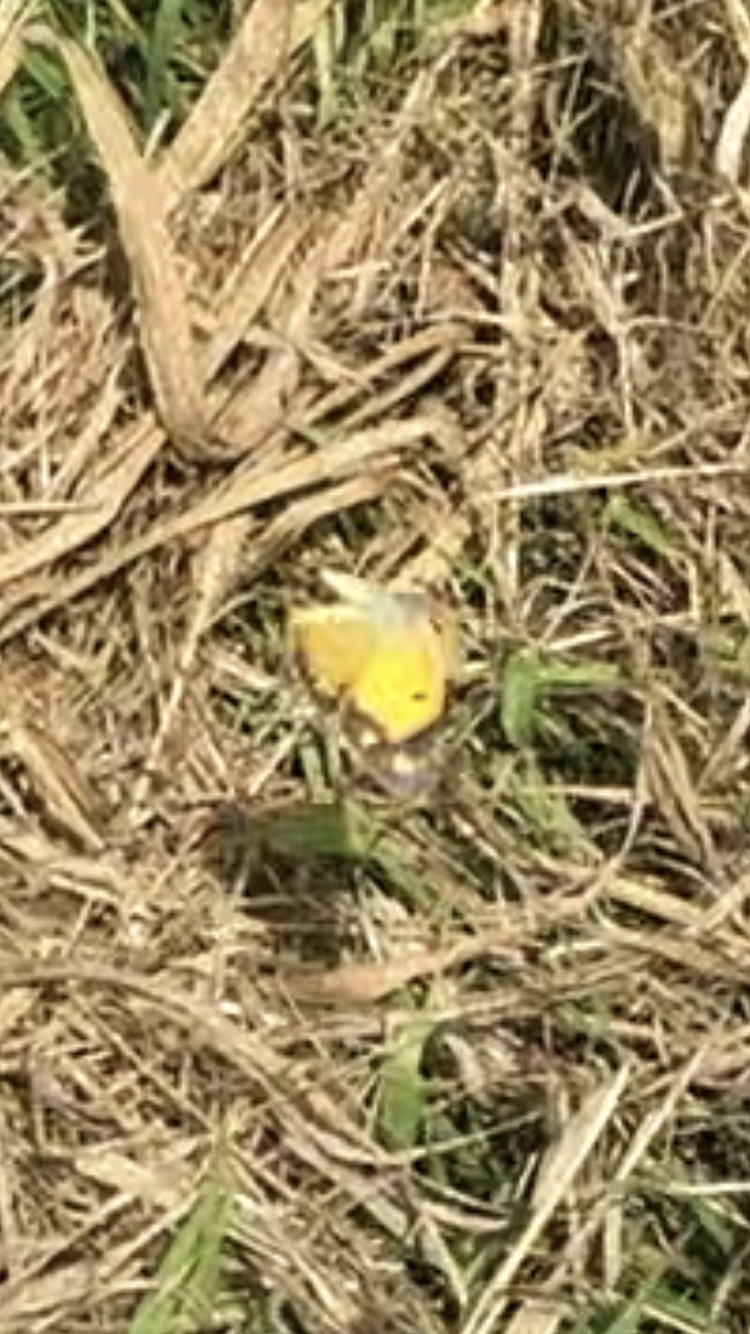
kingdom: Animalia
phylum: Arthropoda
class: Insecta
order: Lepidoptera
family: Pieridae
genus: Colias
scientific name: Colias croceus
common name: Clouded yellow
